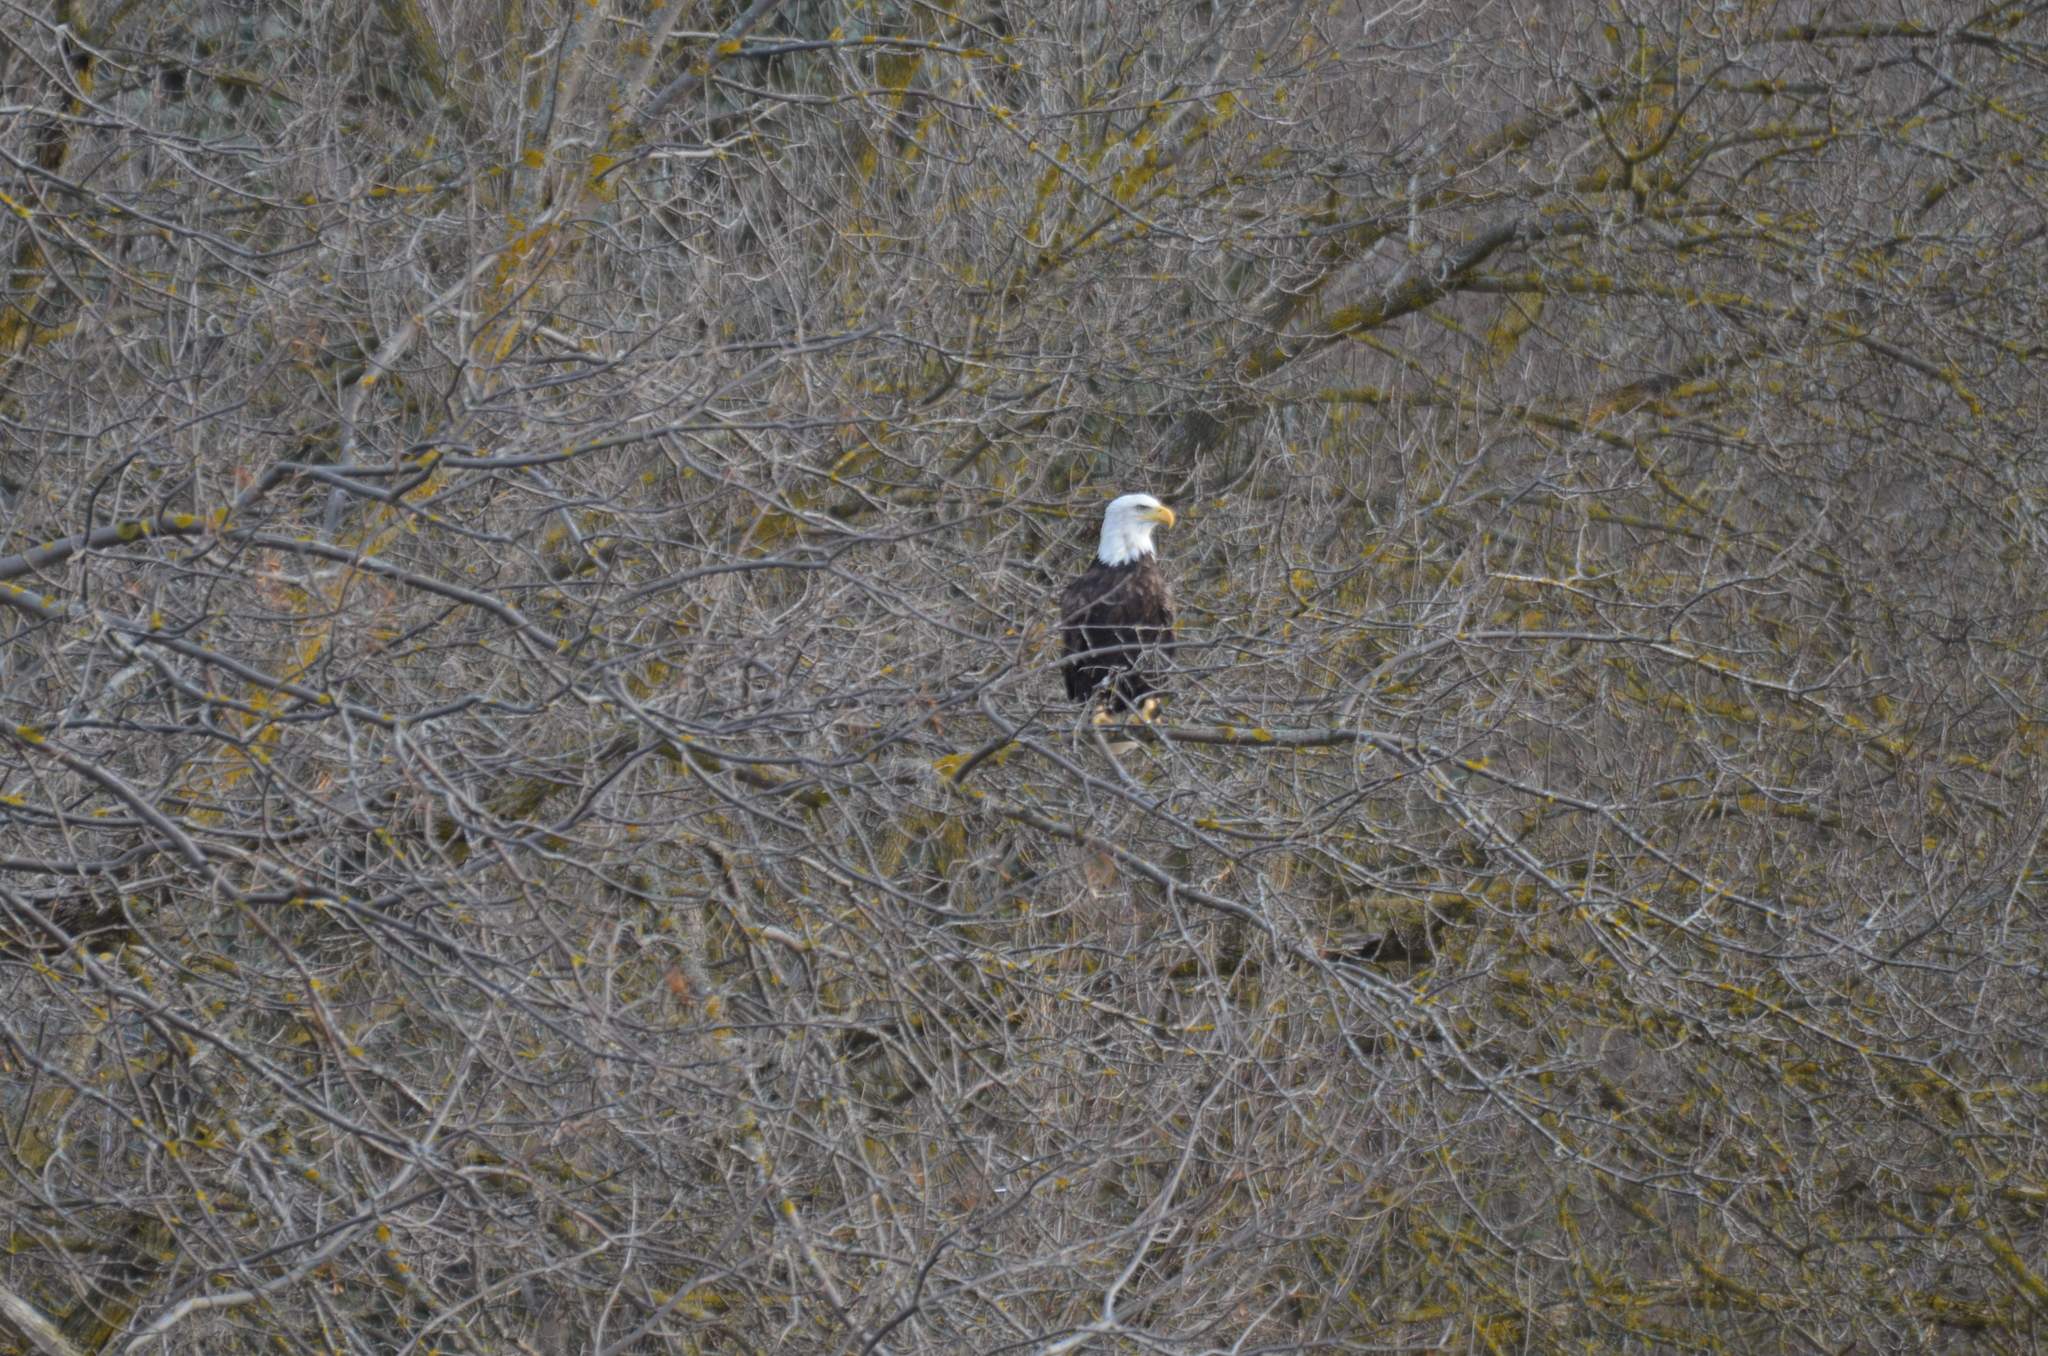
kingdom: Animalia
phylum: Chordata
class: Aves
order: Accipitriformes
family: Accipitridae
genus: Haliaeetus
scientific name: Haliaeetus leucocephalus
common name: Bald eagle
